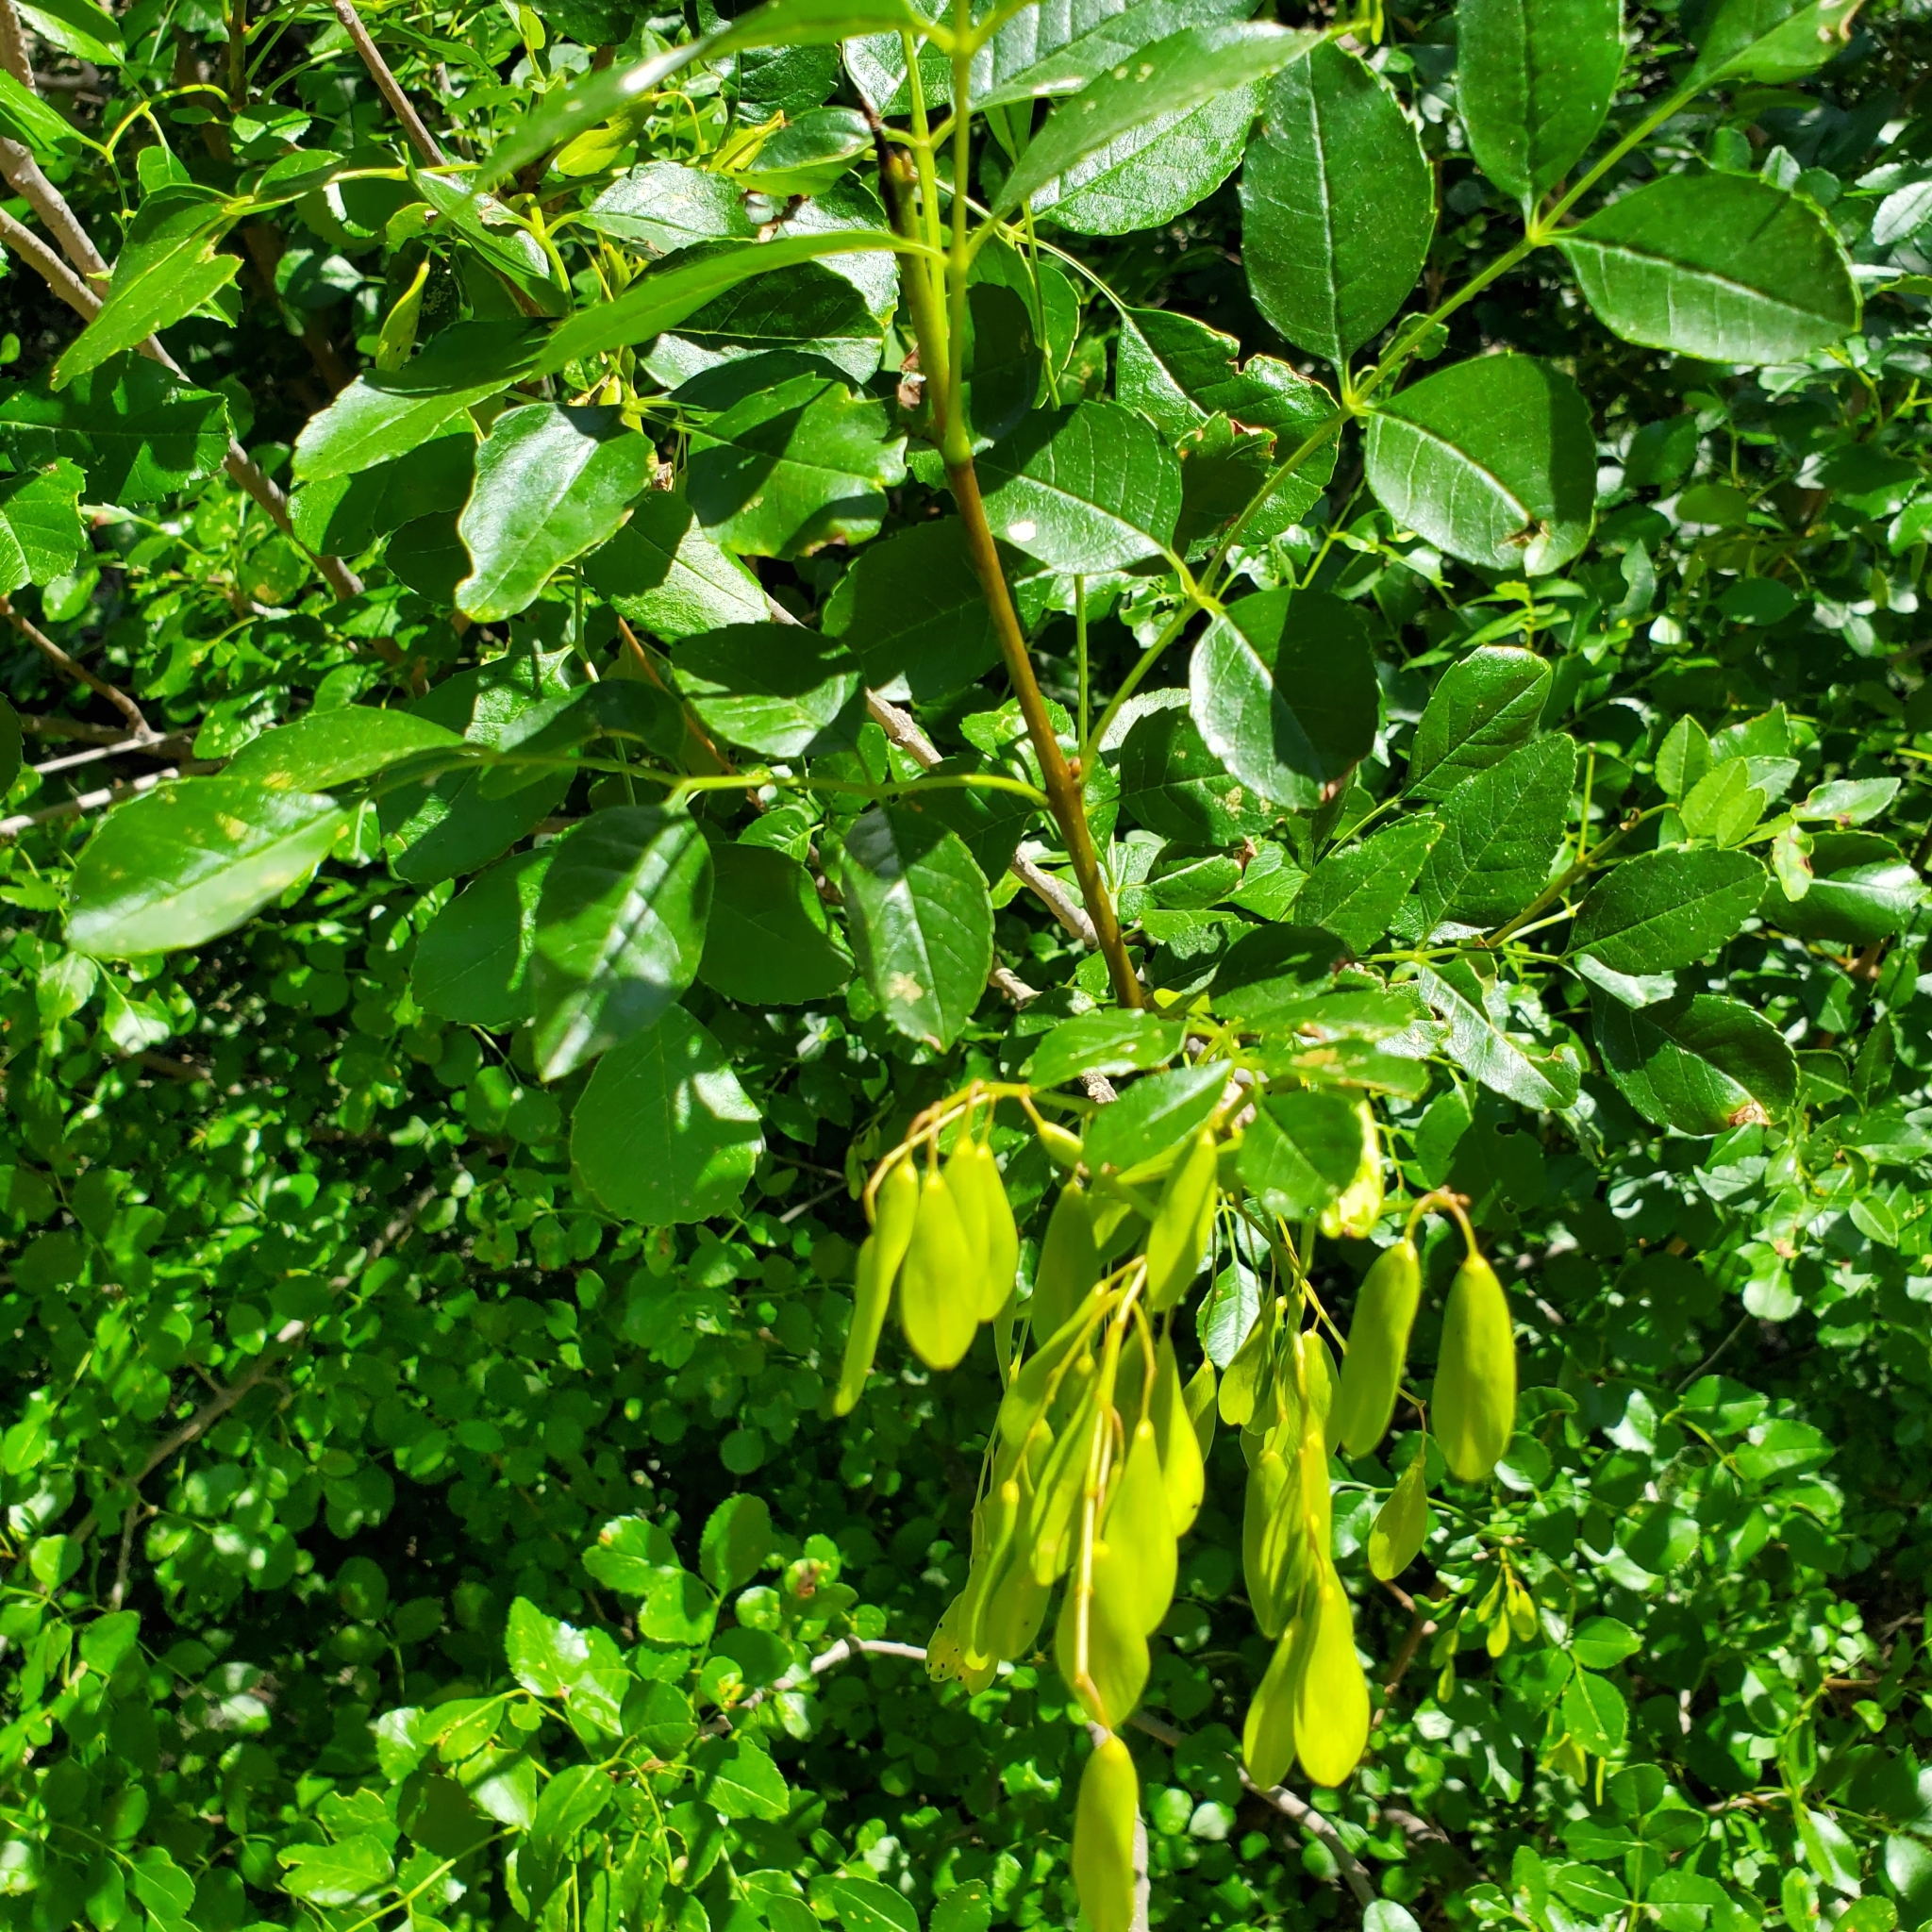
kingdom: Plantae
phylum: Tracheophyta
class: Magnoliopsida
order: Lamiales
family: Oleaceae
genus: Fraxinus
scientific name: Fraxinus dipetala
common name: California ash
